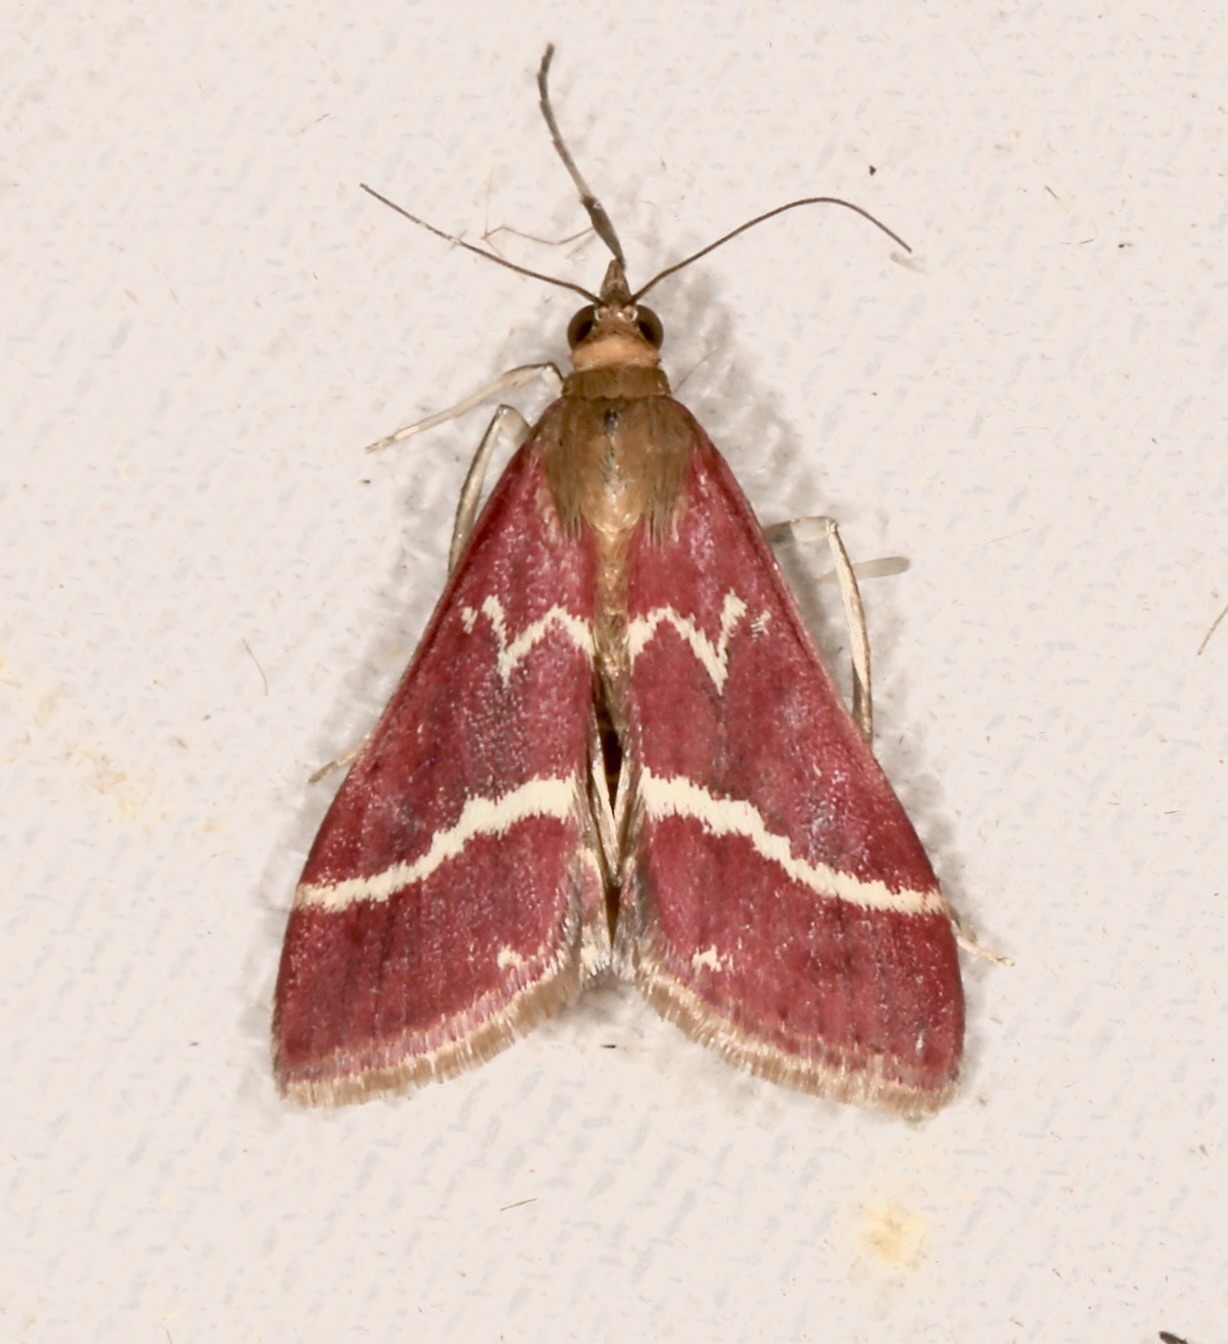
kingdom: Animalia
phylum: Arthropoda
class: Insecta
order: Lepidoptera
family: Crambidae
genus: Pyrausta
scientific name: Pyrausta volupialis
